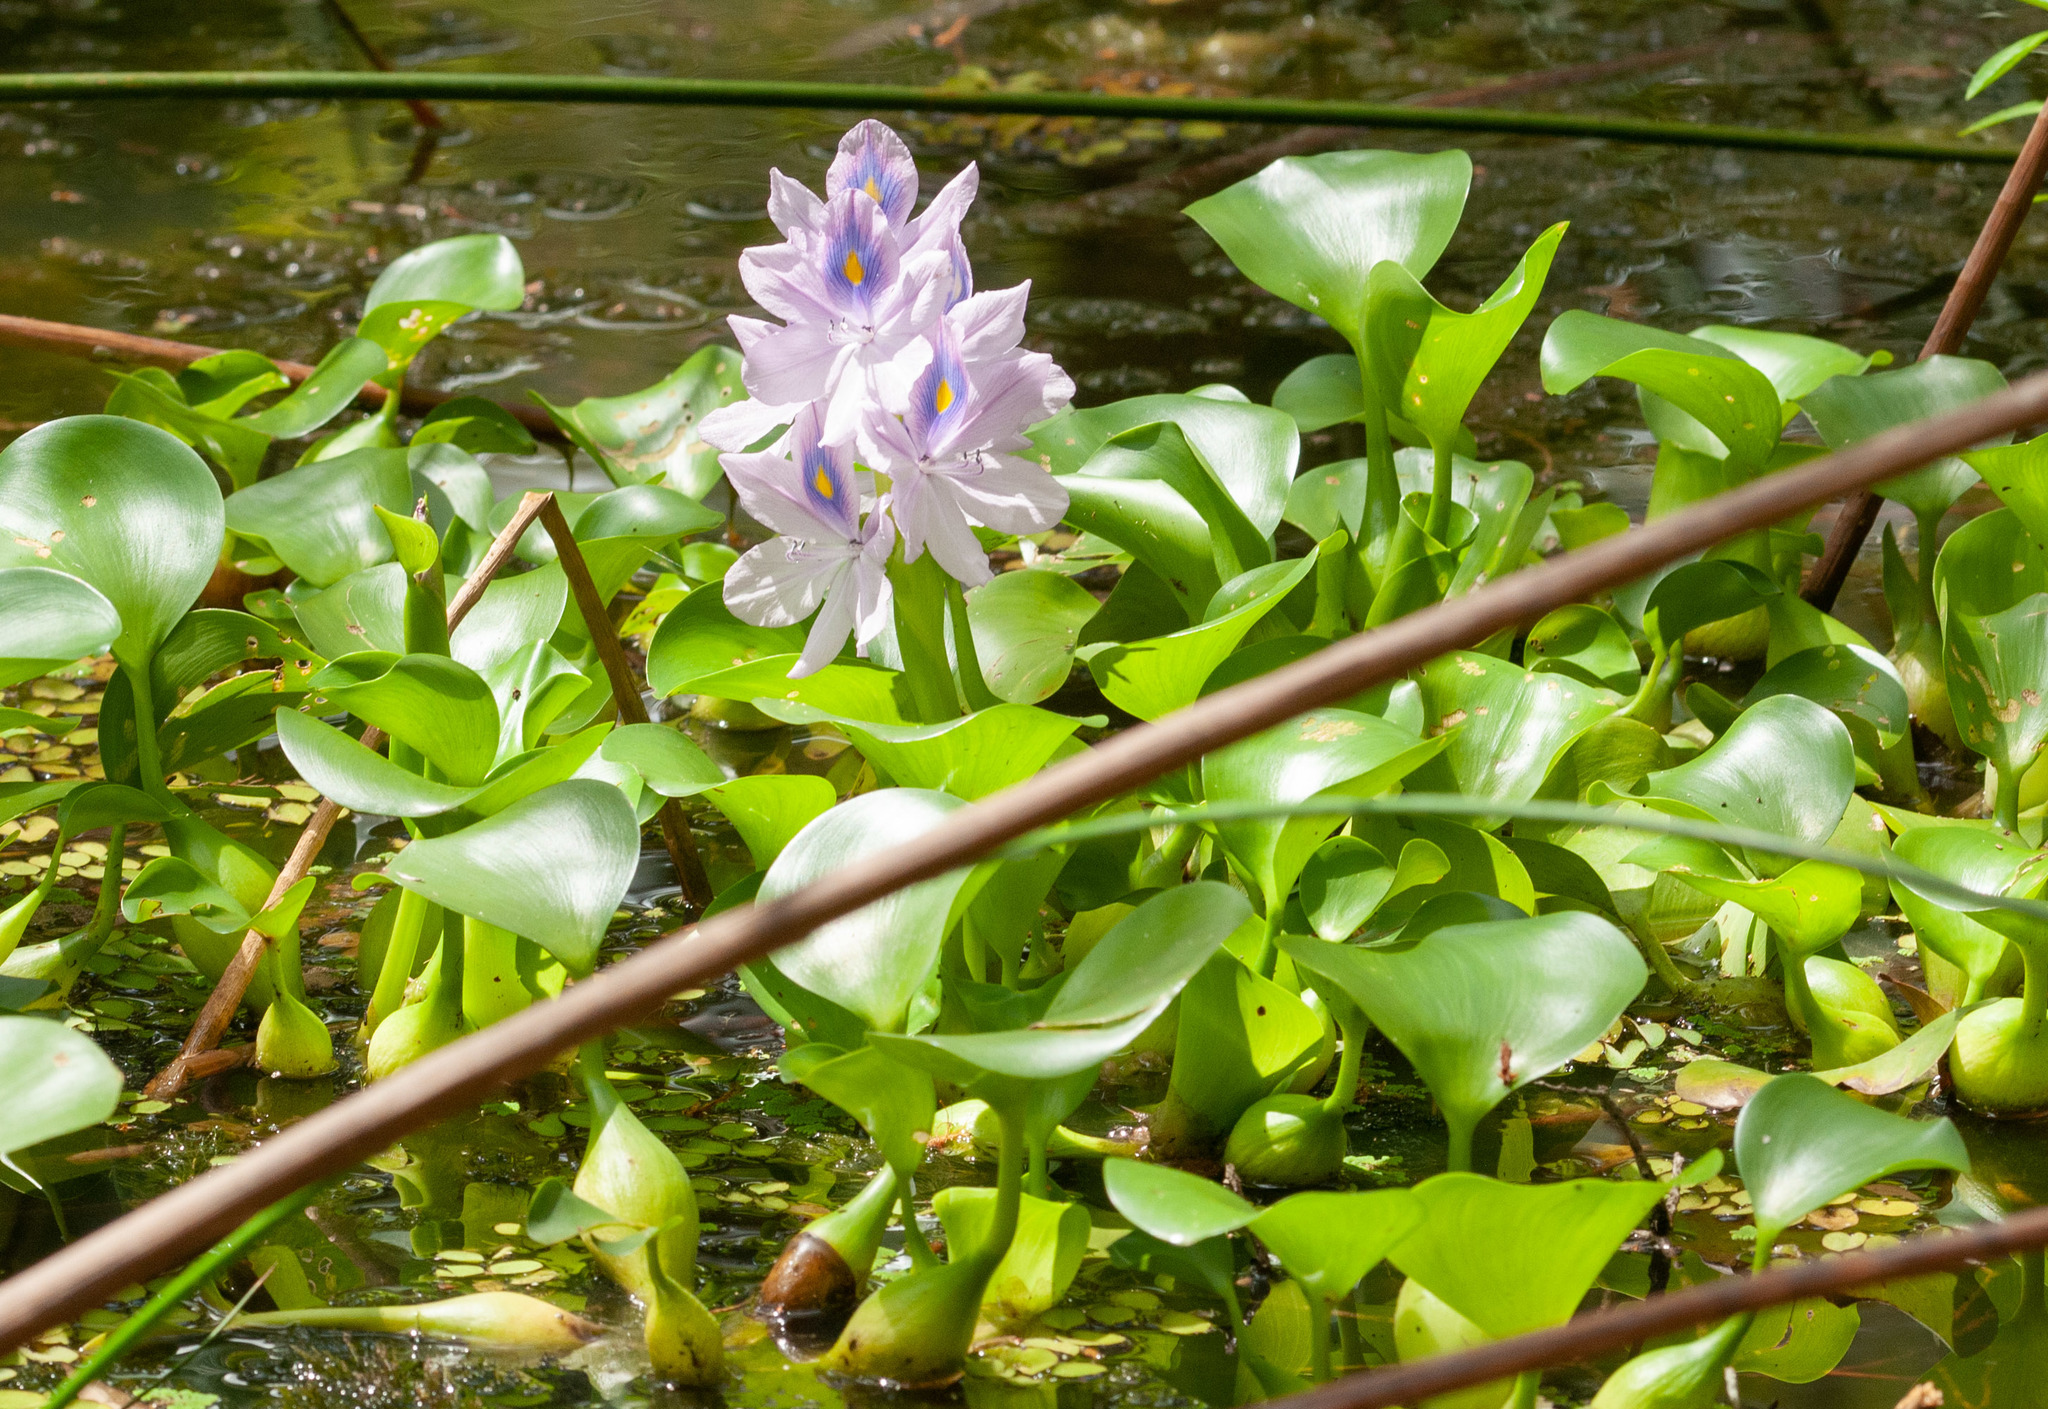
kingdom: Plantae
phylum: Tracheophyta
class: Liliopsida
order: Commelinales
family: Pontederiaceae
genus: Pontederia
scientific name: Pontederia crassipes
